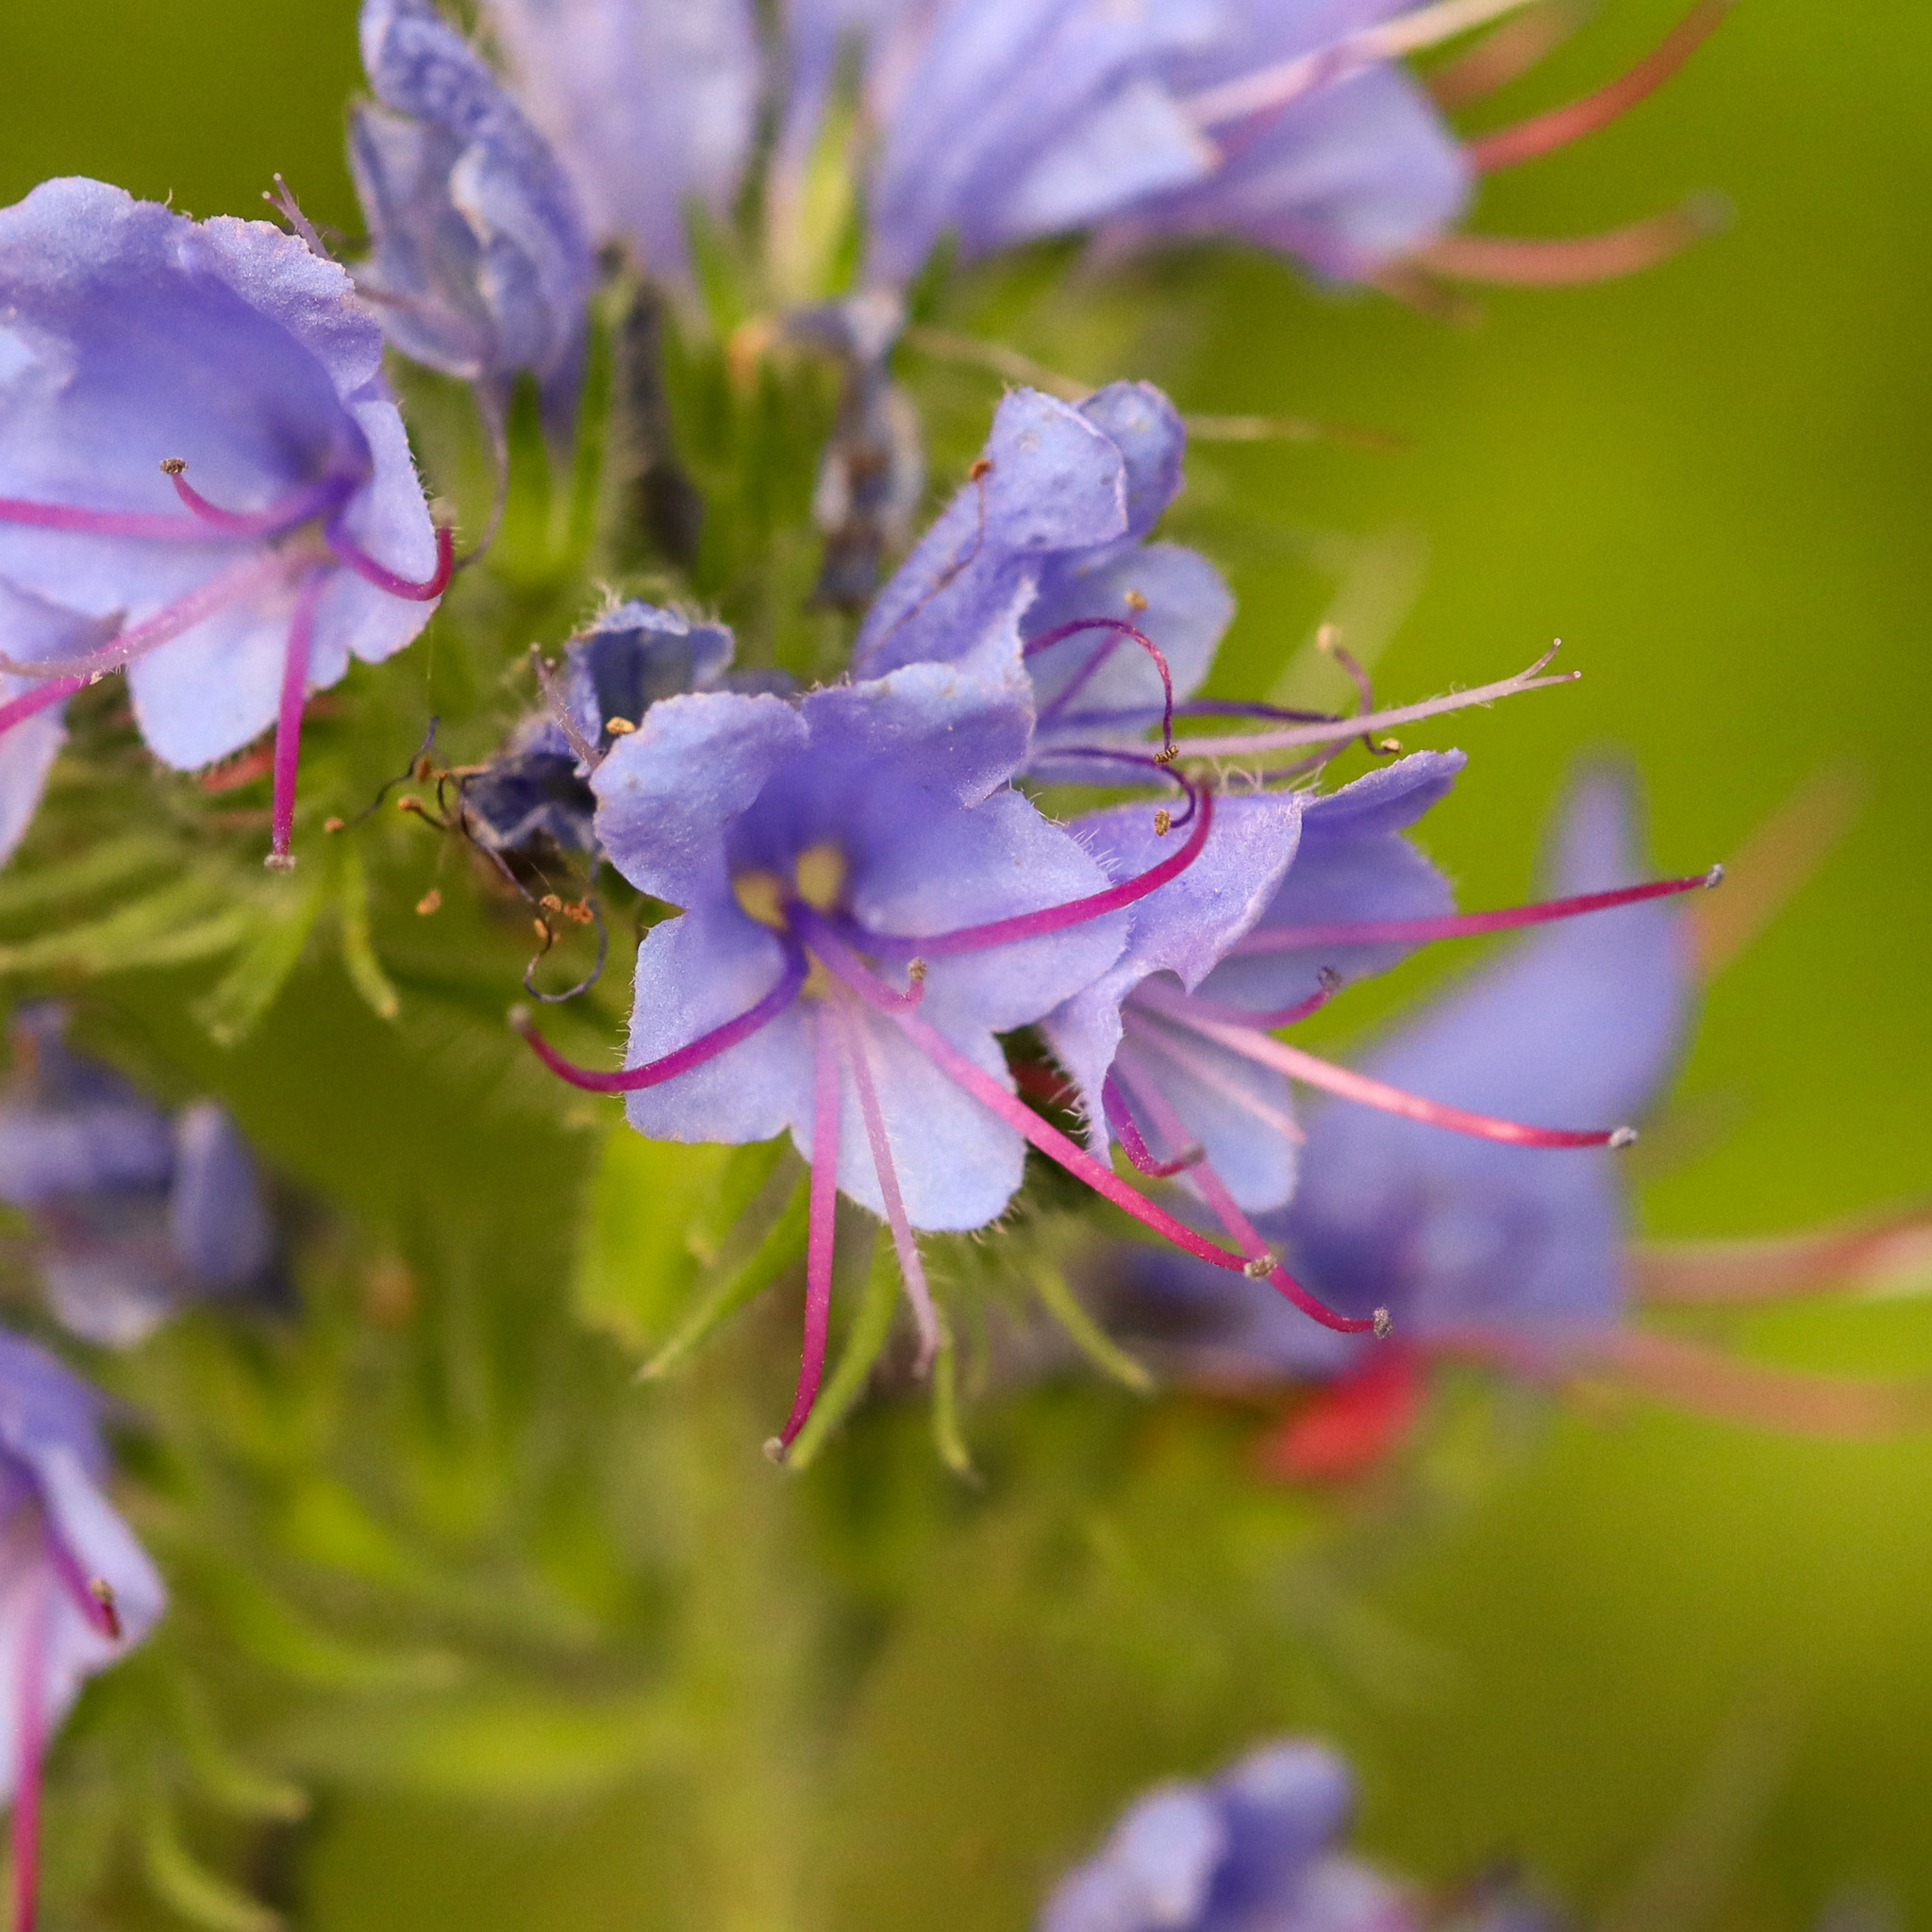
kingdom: Plantae
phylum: Tracheophyta
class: Magnoliopsida
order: Boraginales
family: Boraginaceae
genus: Echium
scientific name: Echium vulgare
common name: Common viper's bugloss
